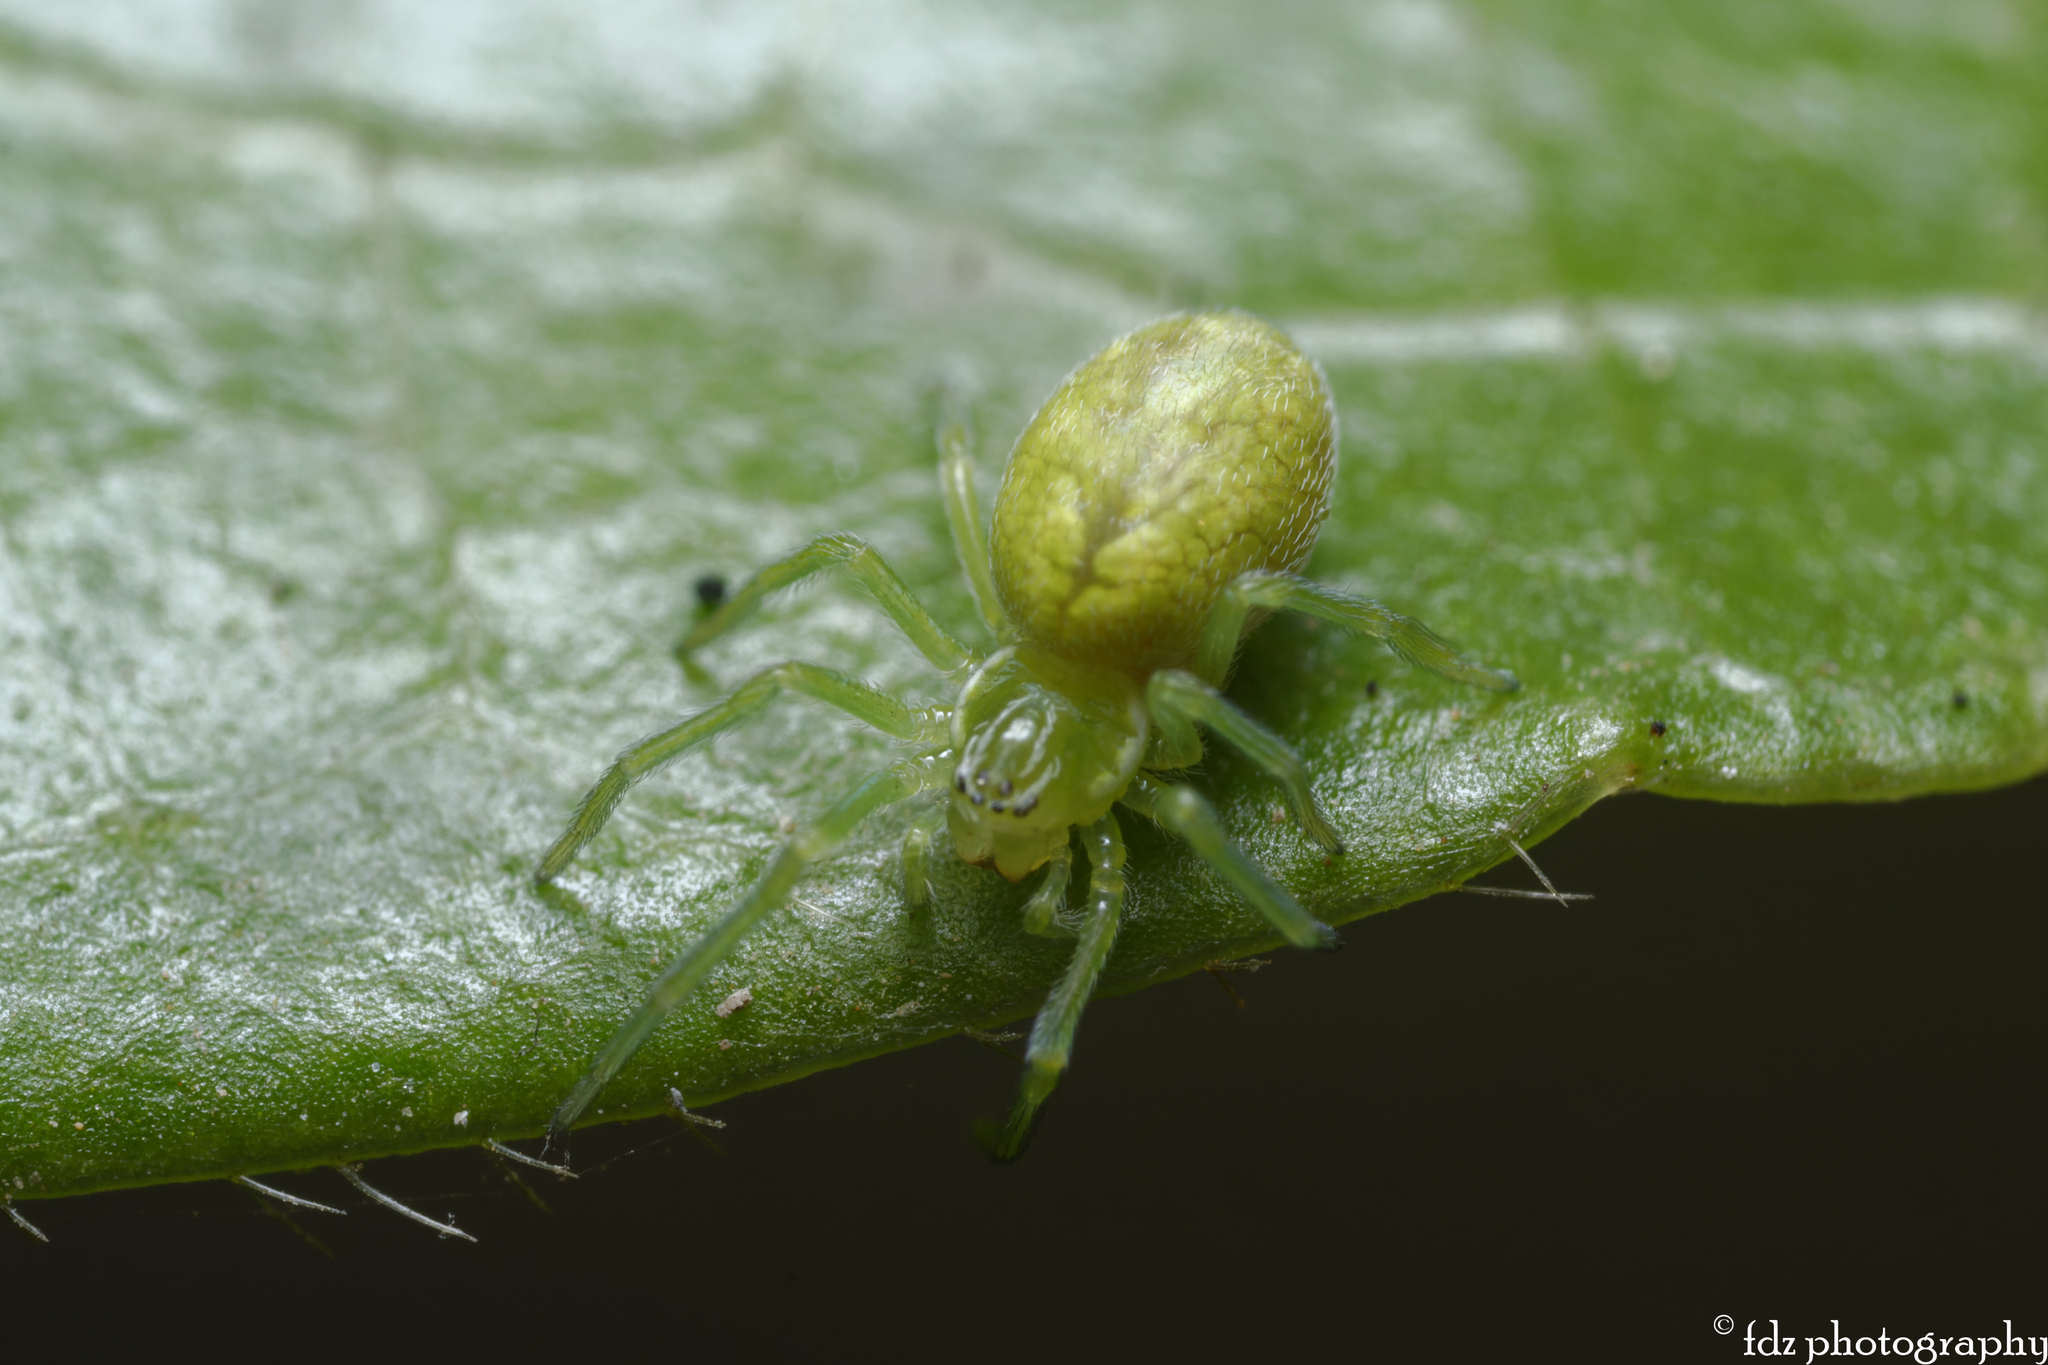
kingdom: Animalia
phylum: Arthropoda
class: Arachnida
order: Araneae
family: Dictynidae
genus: Nigma
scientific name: Nigma walckenaeri
